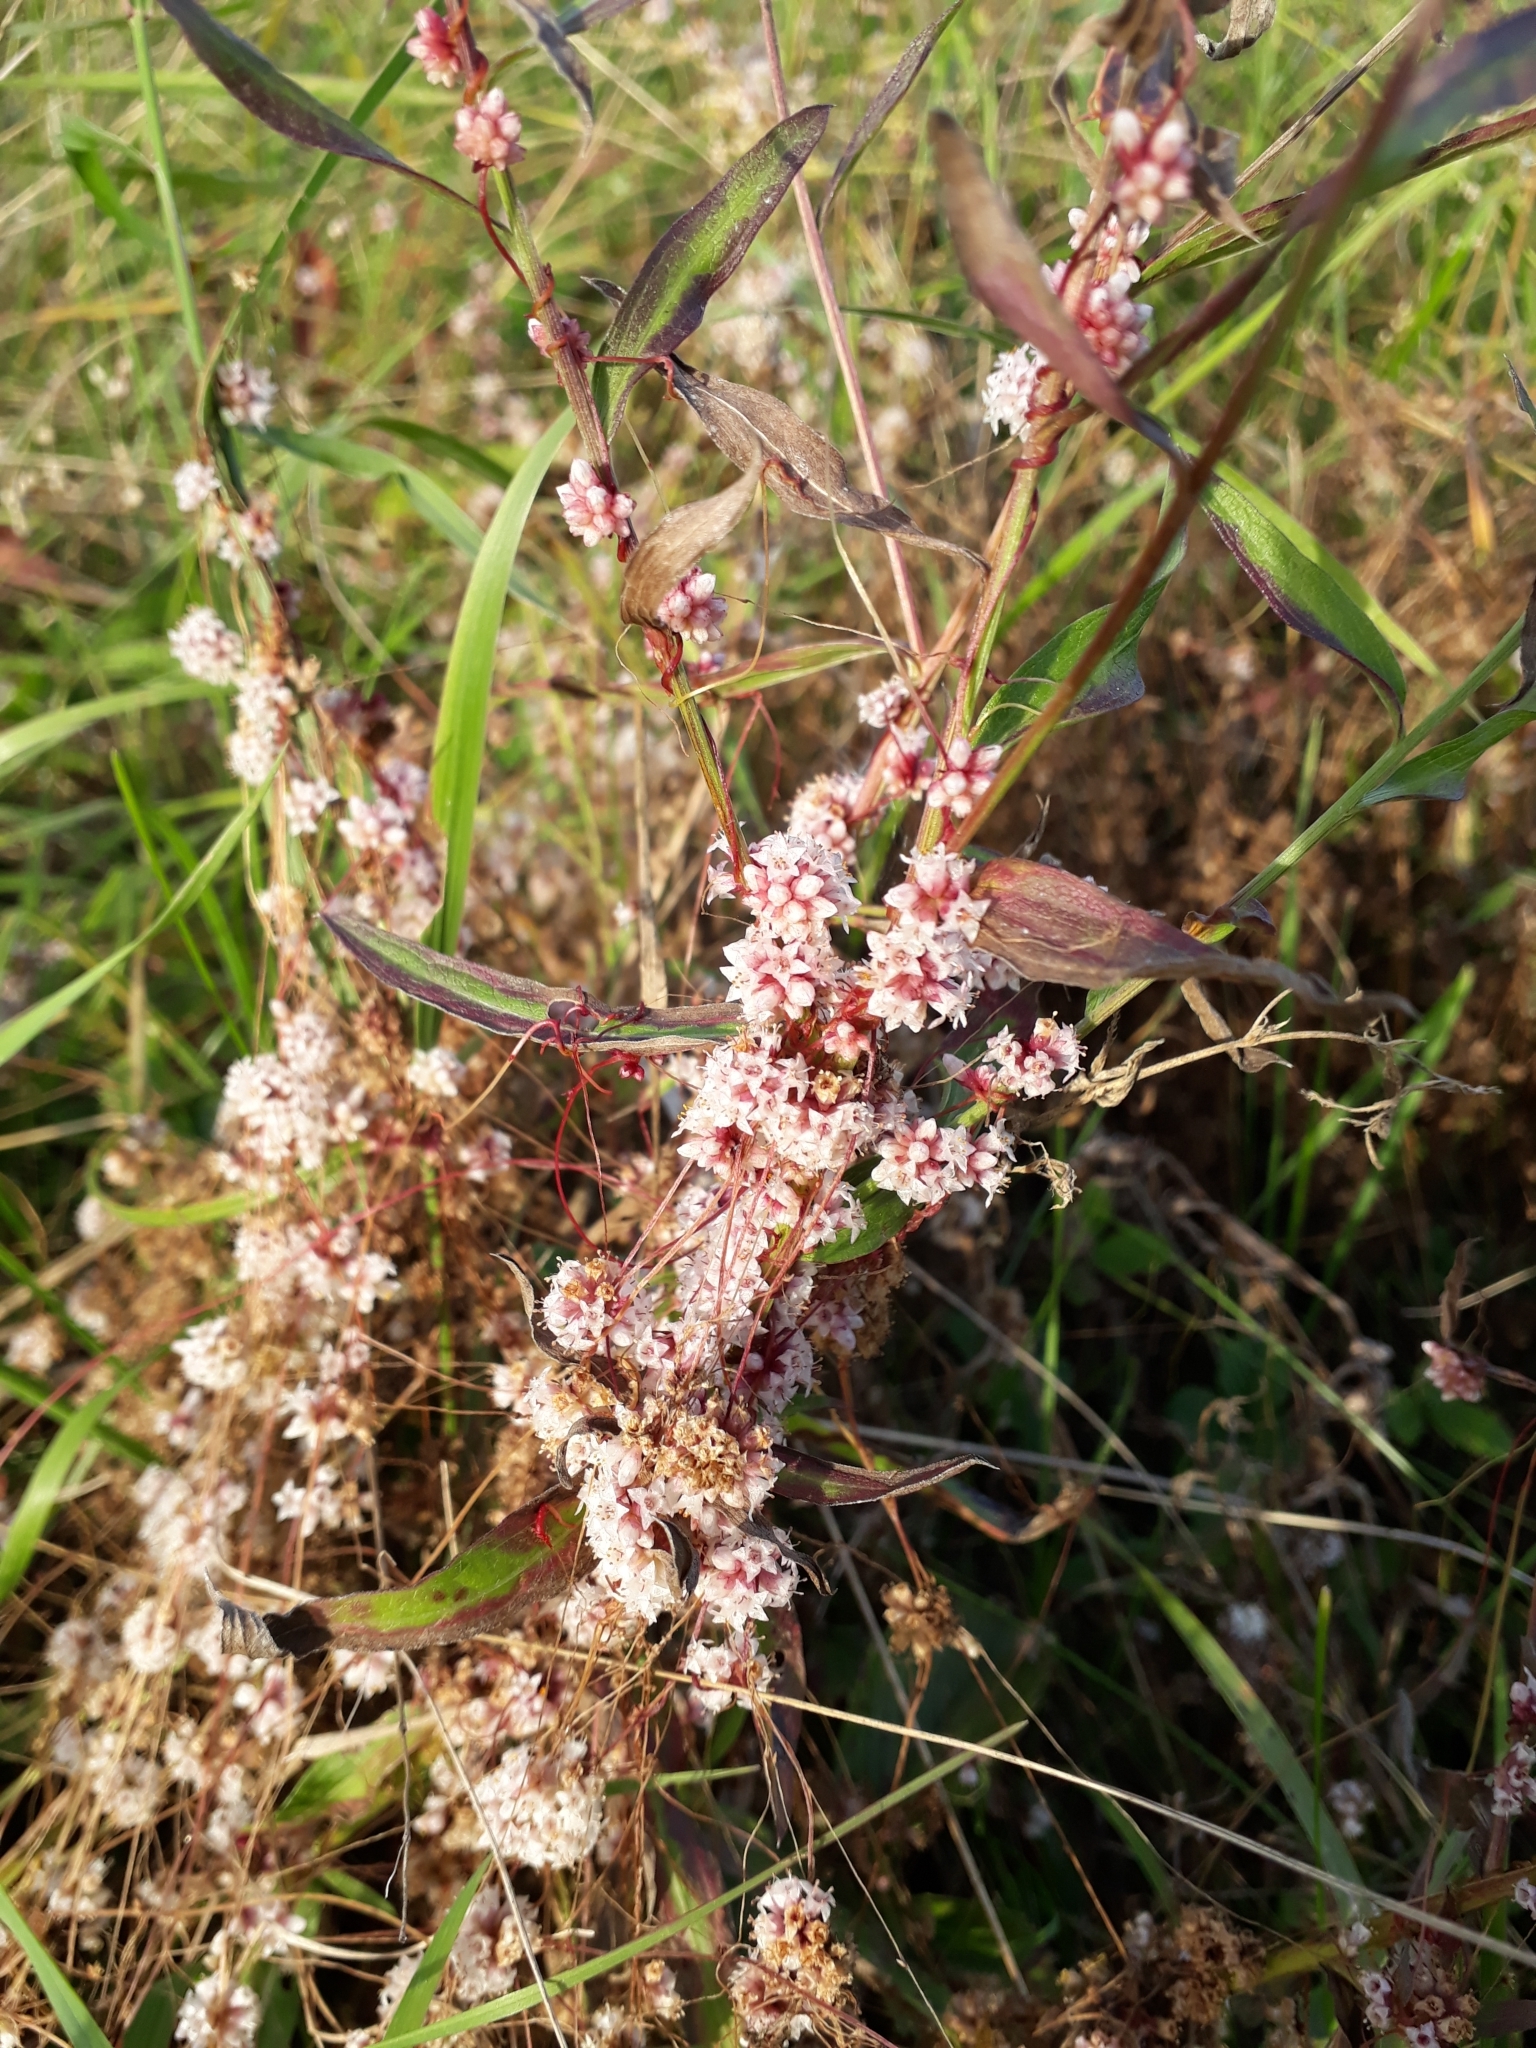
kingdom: Plantae
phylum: Tracheophyta
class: Magnoliopsida
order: Solanales
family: Convolvulaceae
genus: Cuscuta
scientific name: Cuscuta epithymum
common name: Clover dodder
